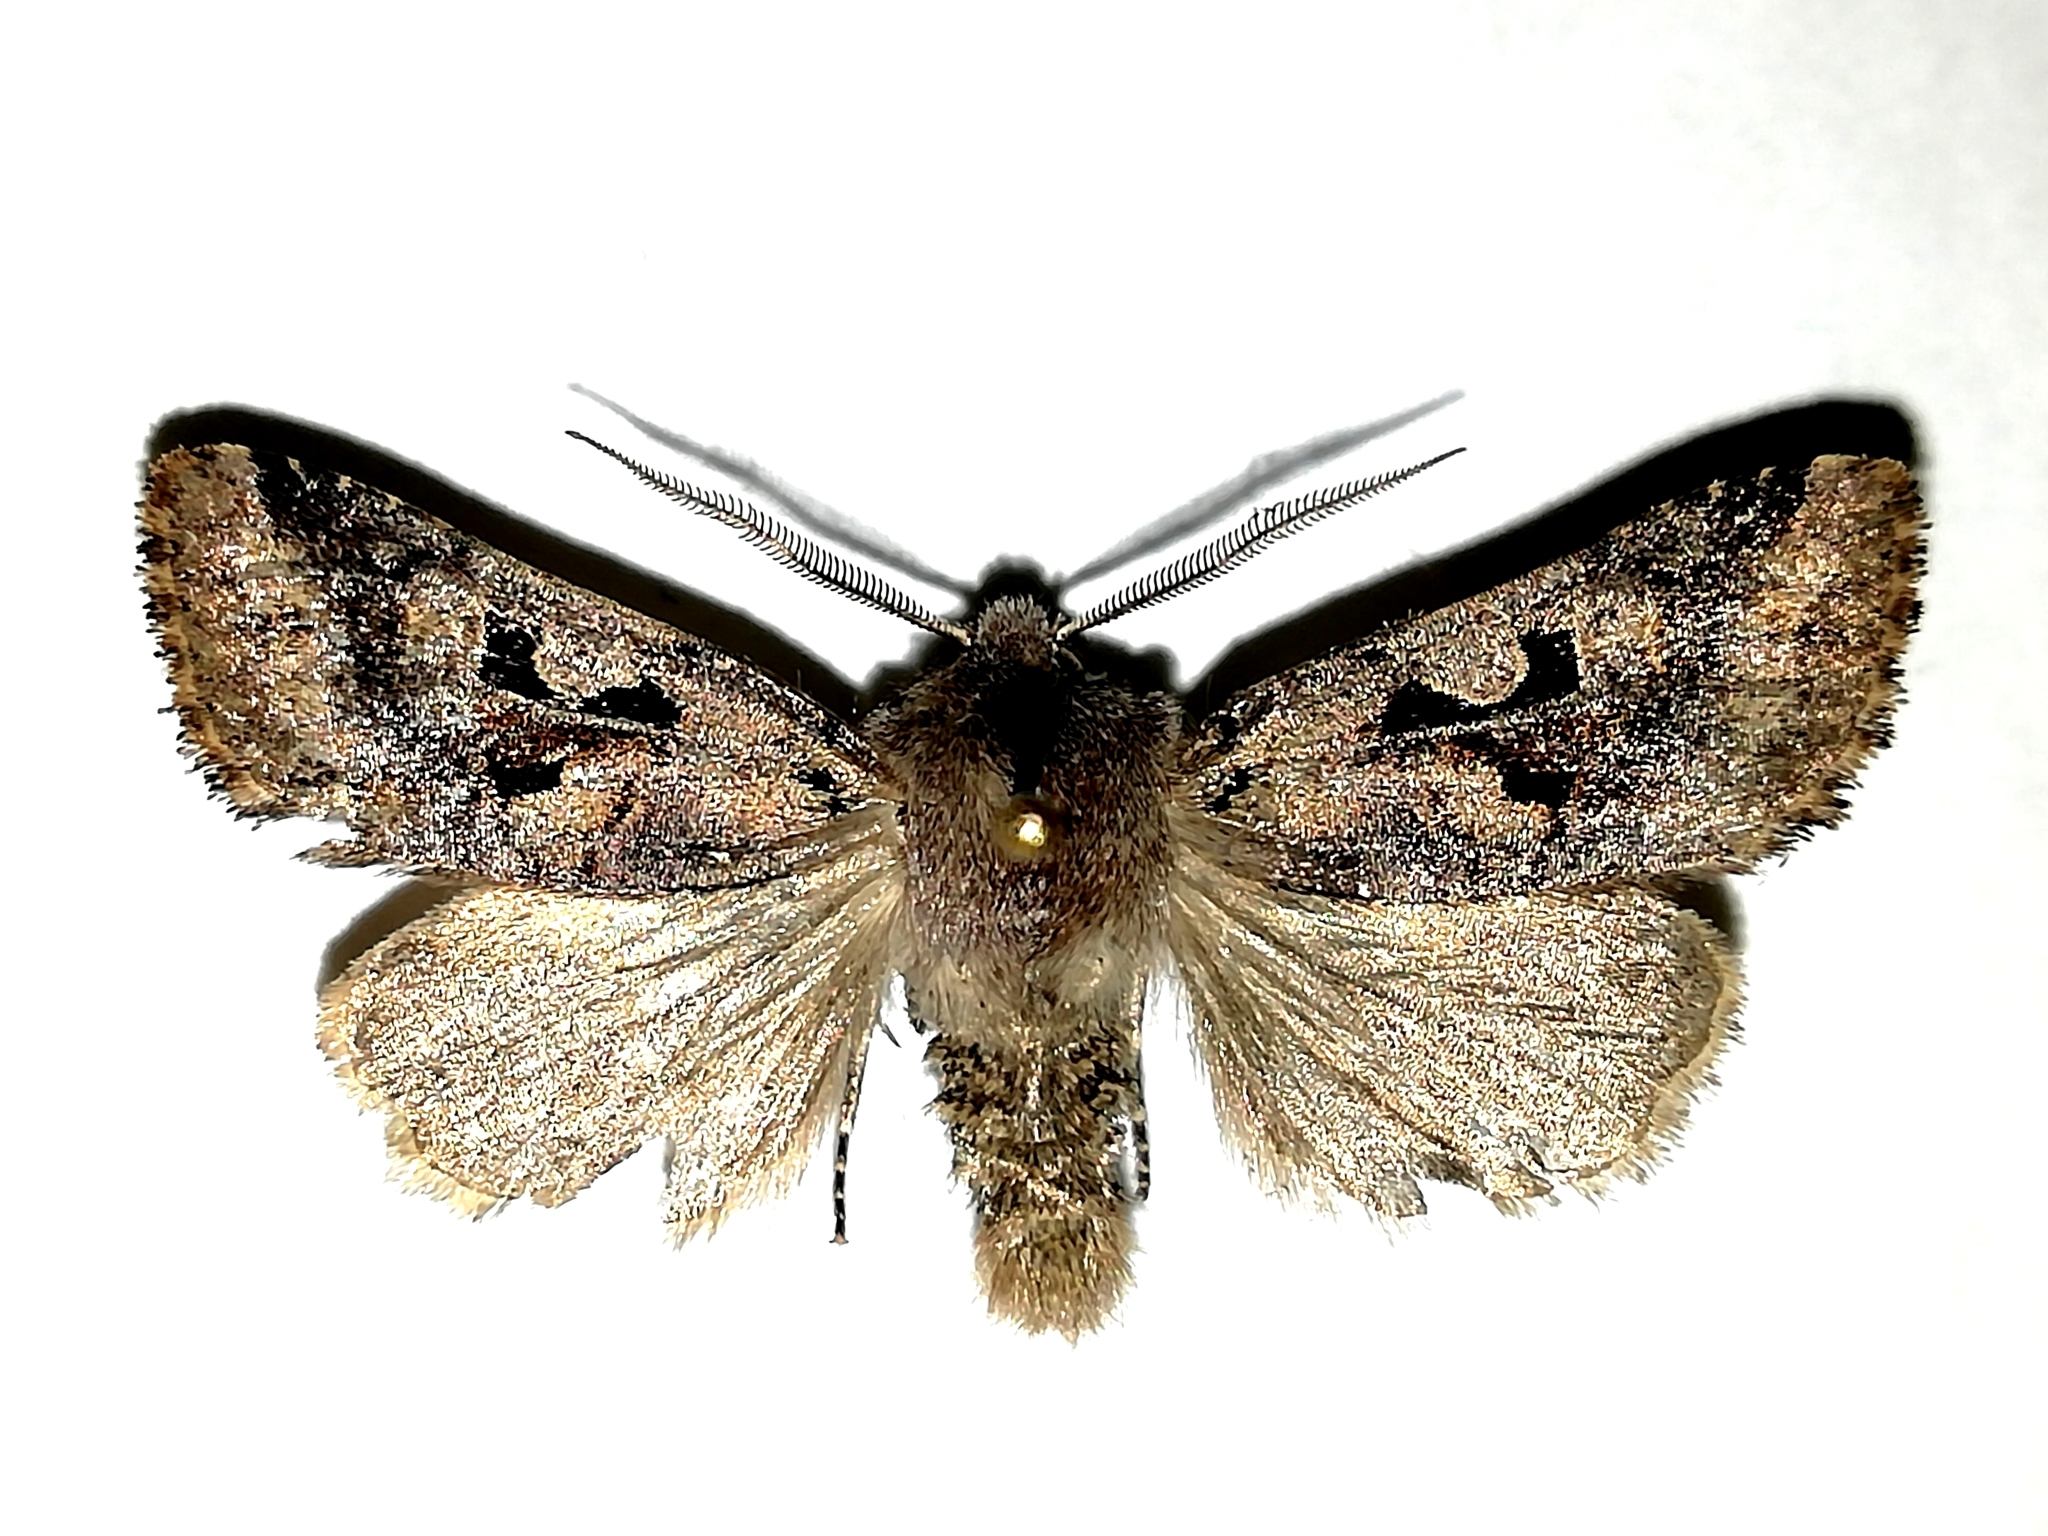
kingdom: Animalia
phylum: Arthropoda
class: Insecta
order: Lepidoptera
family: Noctuidae
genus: Orthosia
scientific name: Orthosia gothica
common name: Hebrew character
